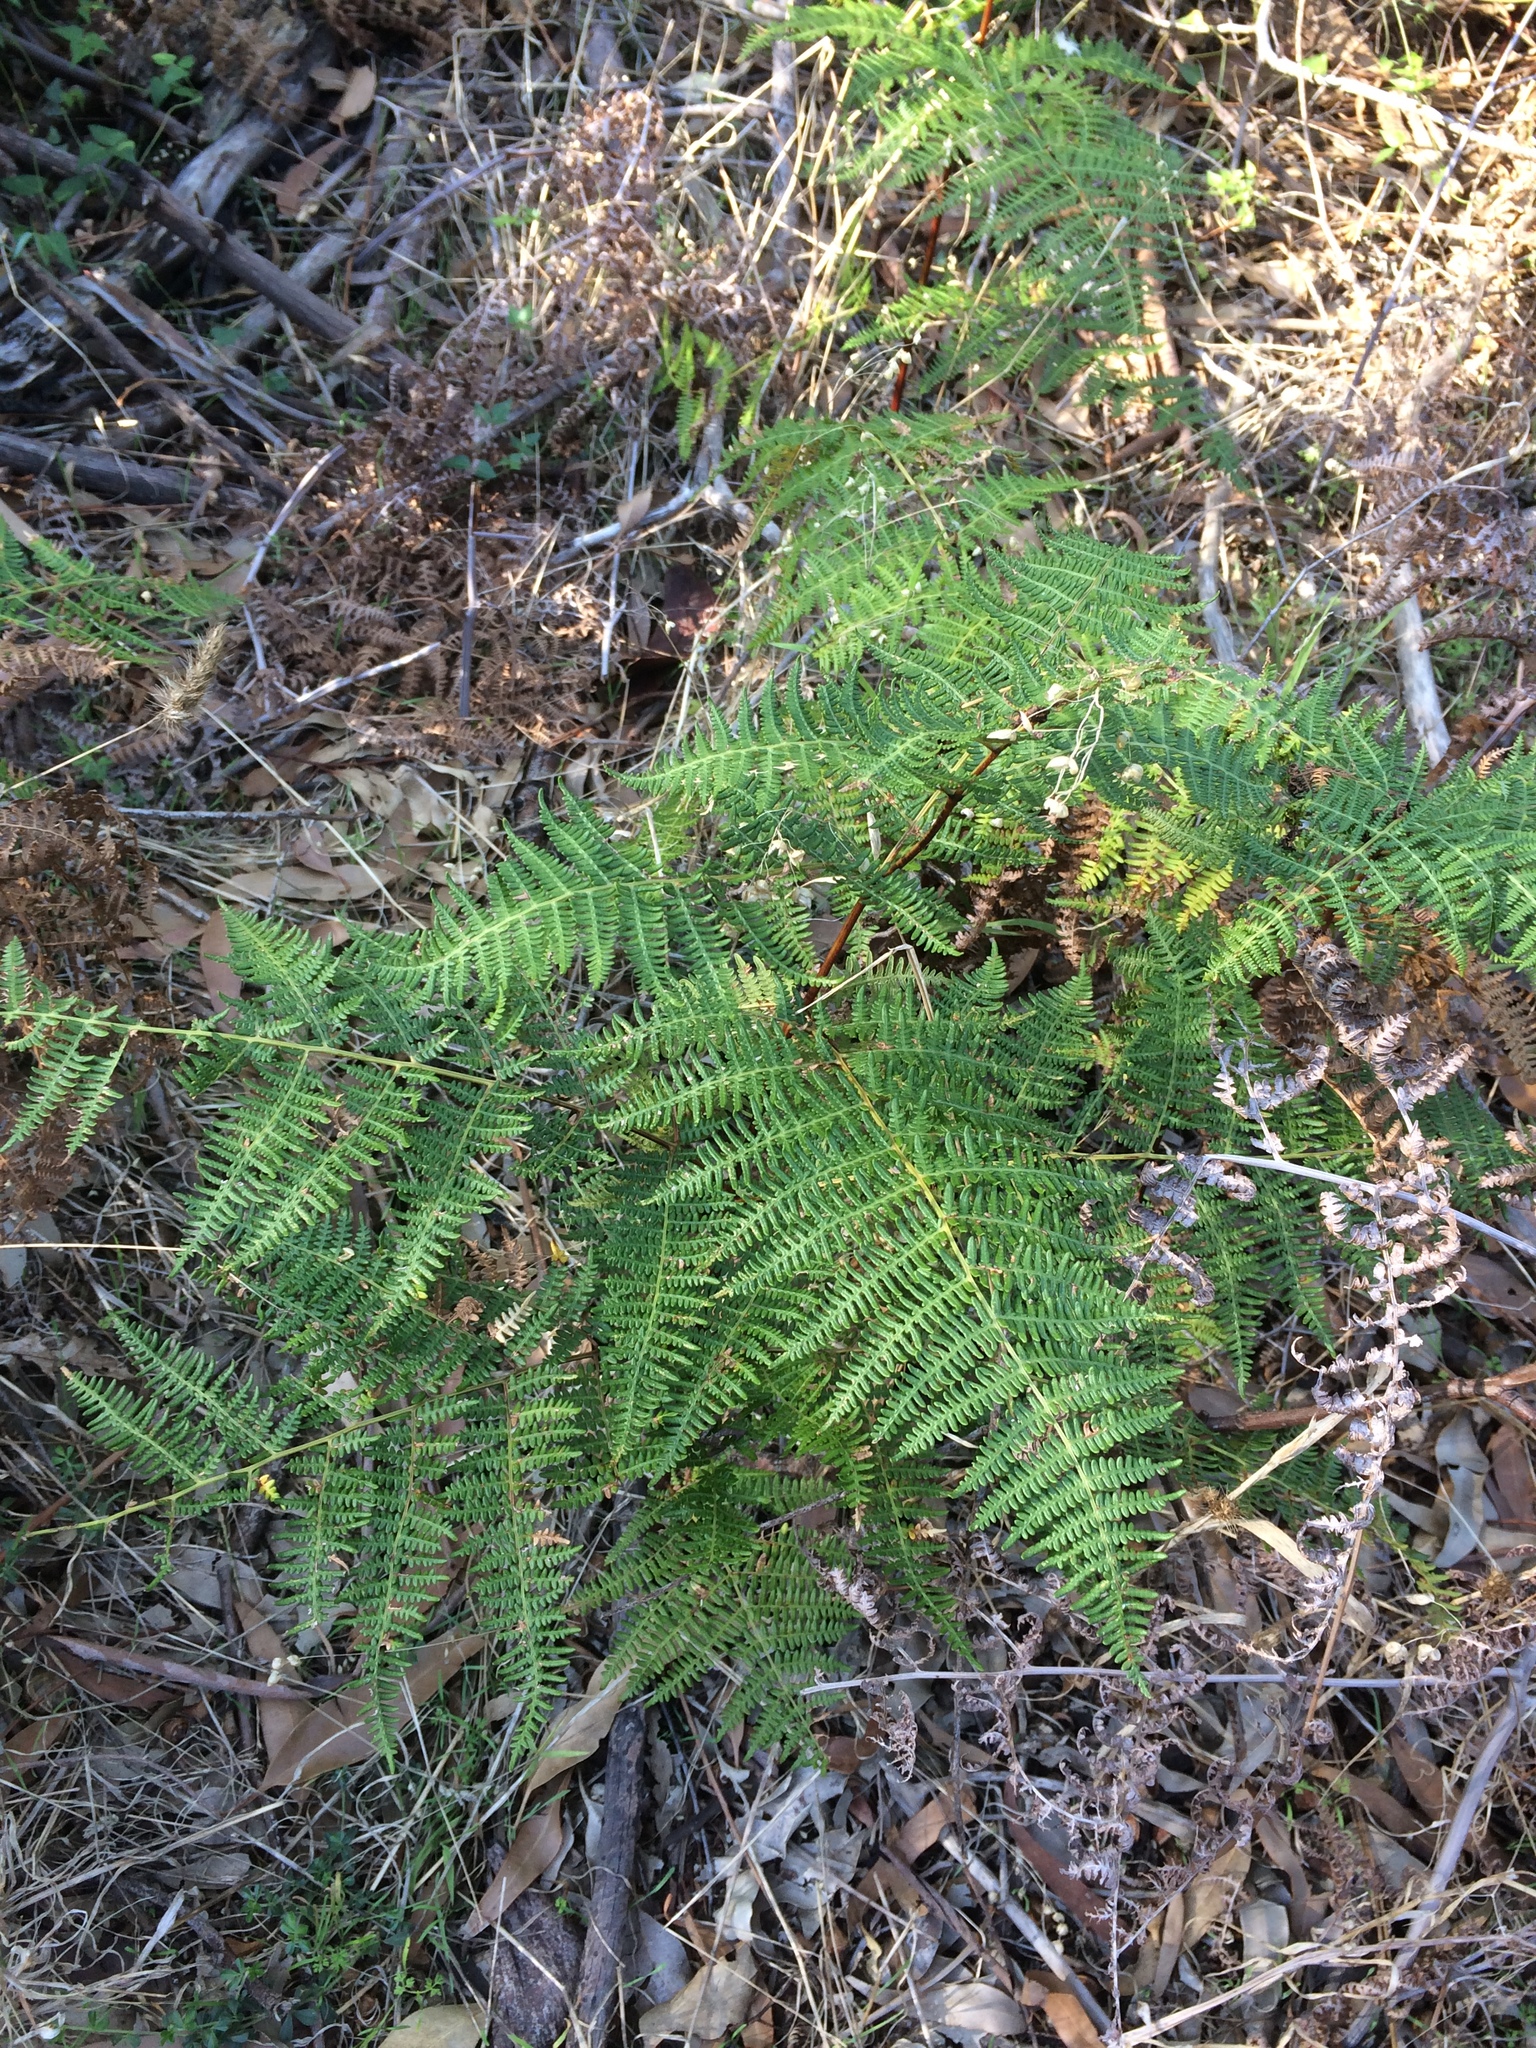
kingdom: Plantae
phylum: Tracheophyta
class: Polypodiopsida
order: Polypodiales
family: Dennstaedtiaceae
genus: Pteridium
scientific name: Pteridium aquilinum
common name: Bracken
